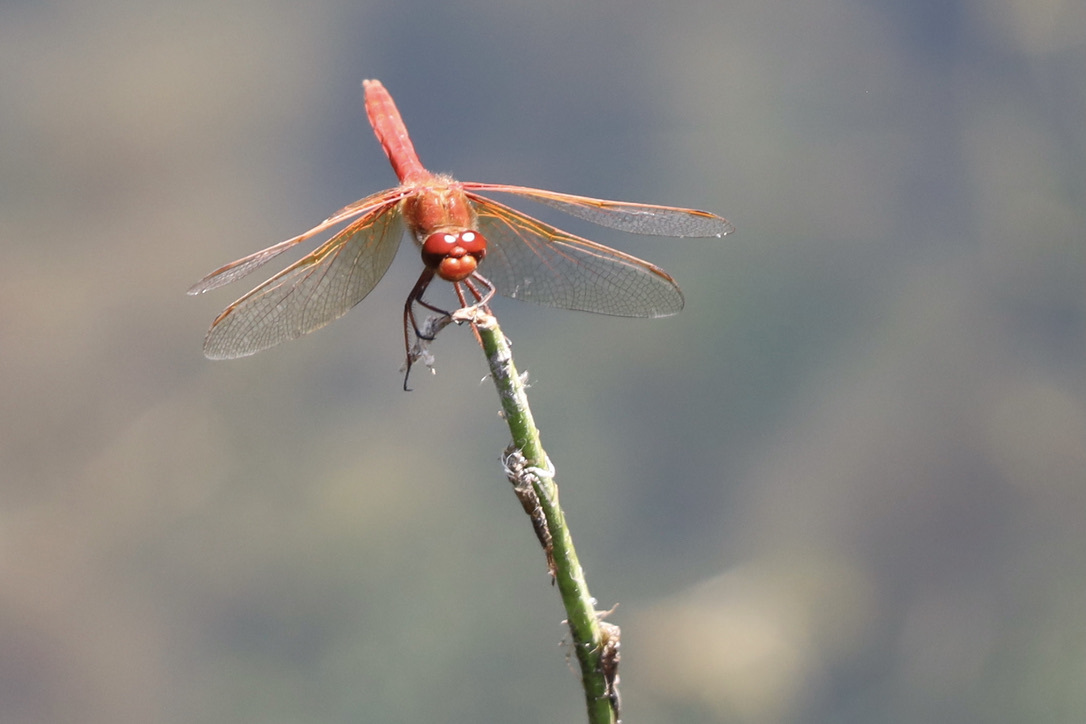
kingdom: Animalia
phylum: Arthropoda
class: Insecta
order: Odonata
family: Libellulidae
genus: Sympetrum
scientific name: Sympetrum illotum
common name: Cardinal meadowhawk
